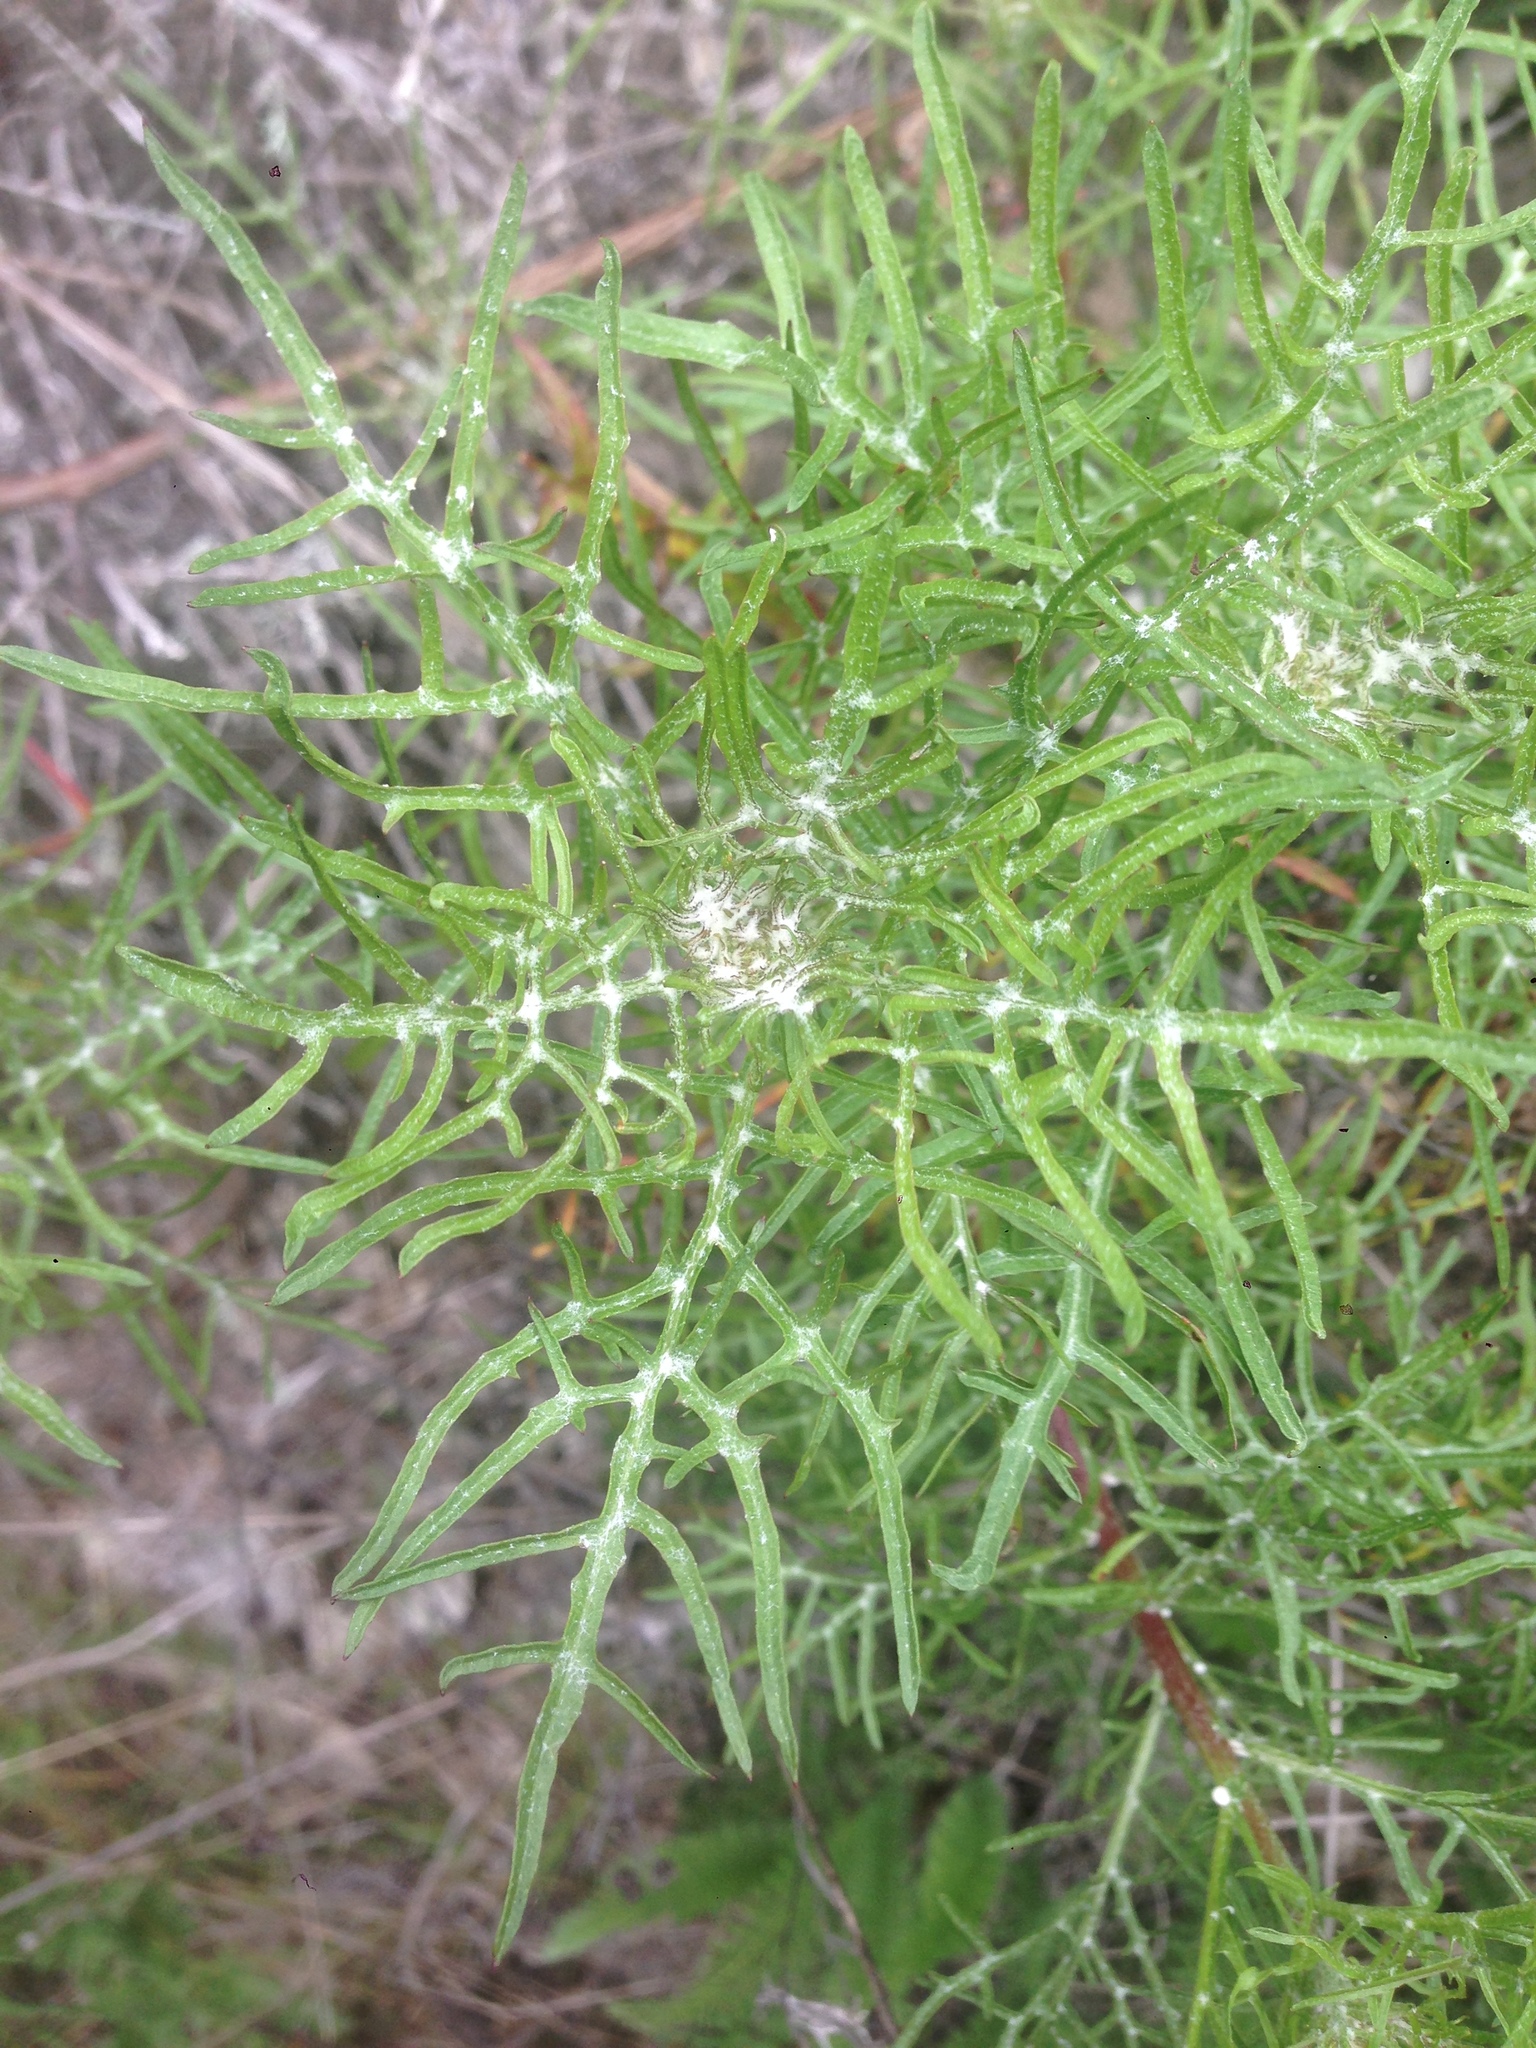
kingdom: Plantae
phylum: Tracheophyta
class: Magnoliopsida
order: Asterales
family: Asteraceae
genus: Malacothrix
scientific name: Malacothrix saxatilis
